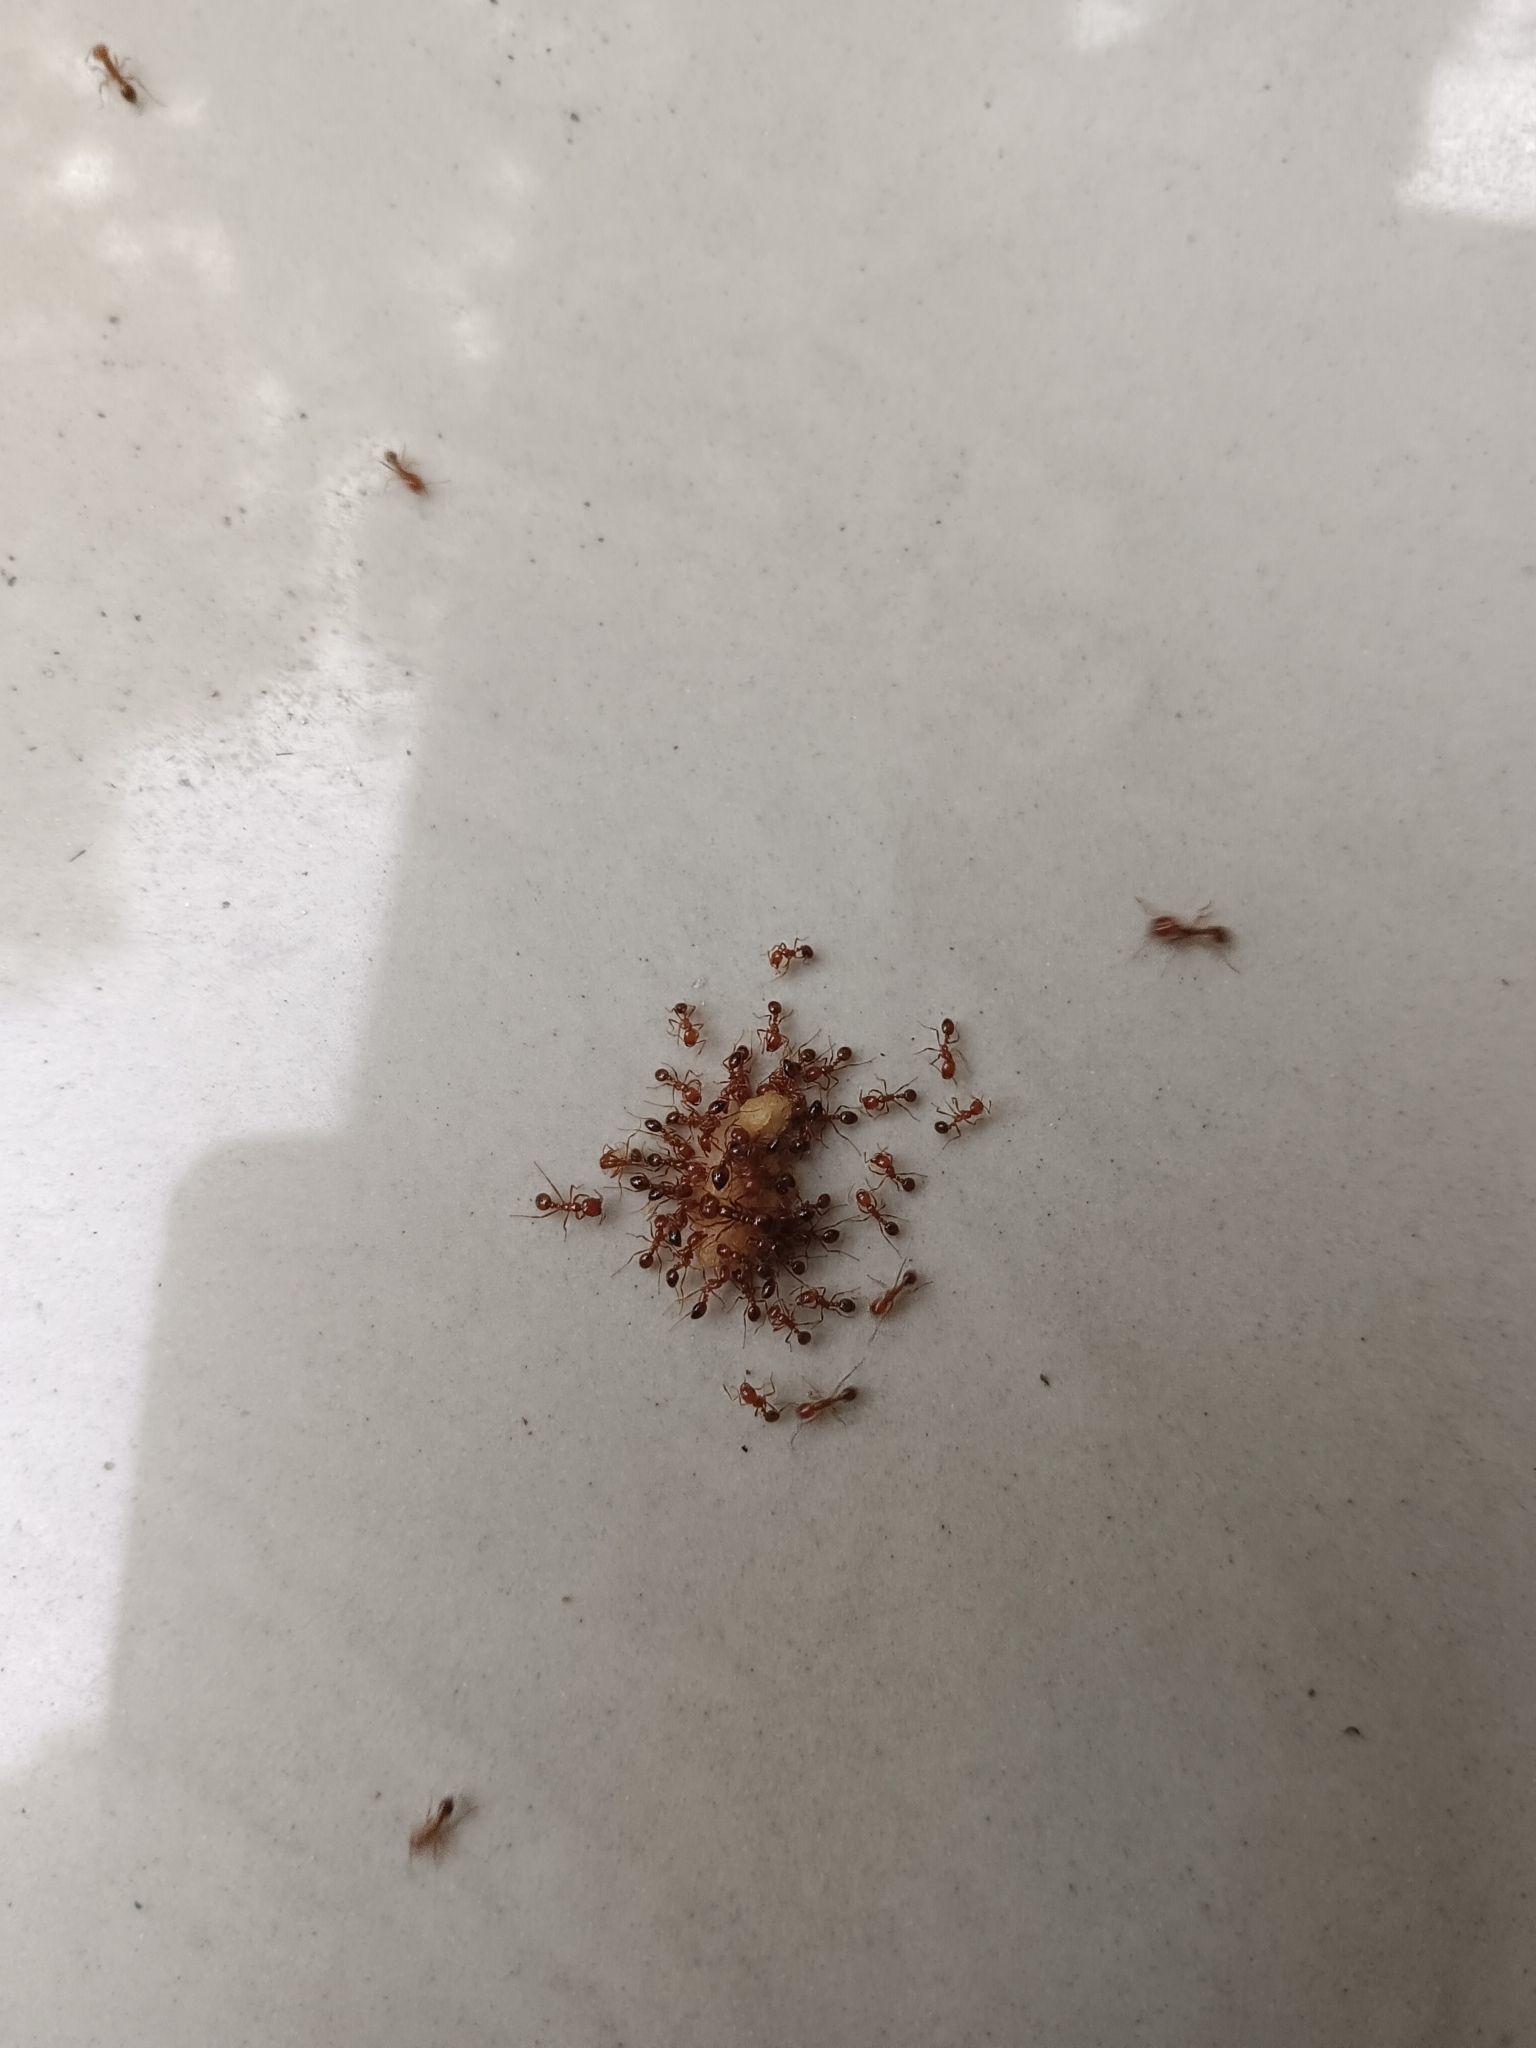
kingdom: Animalia
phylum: Arthropoda
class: Insecta
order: Hymenoptera
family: Formicidae
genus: Solenopsis
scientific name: Solenopsis geminata
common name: Tropical fire ant
